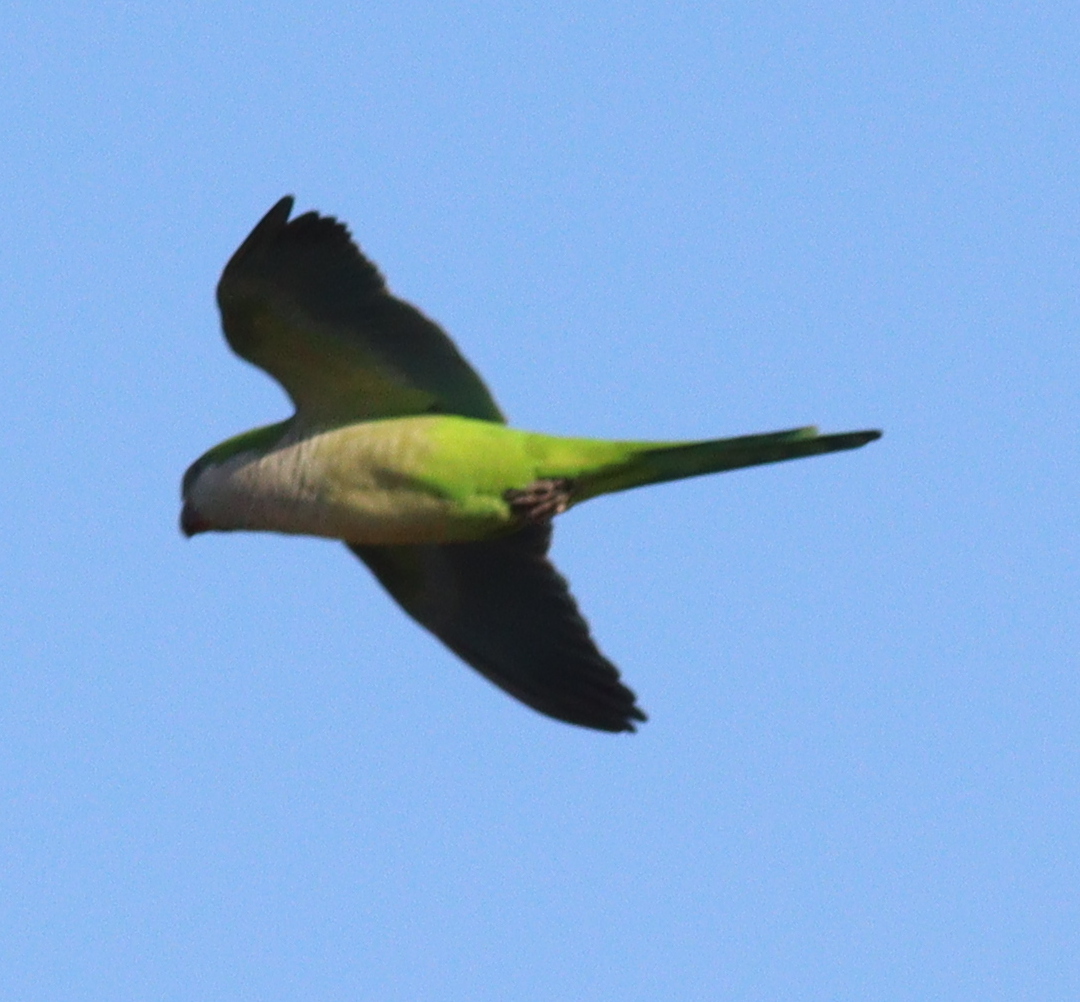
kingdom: Animalia
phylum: Chordata
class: Aves
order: Psittaciformes
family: Psittacidae
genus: Myiopsitta
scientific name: Myiopsitta monachus
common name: Monk parakeet
